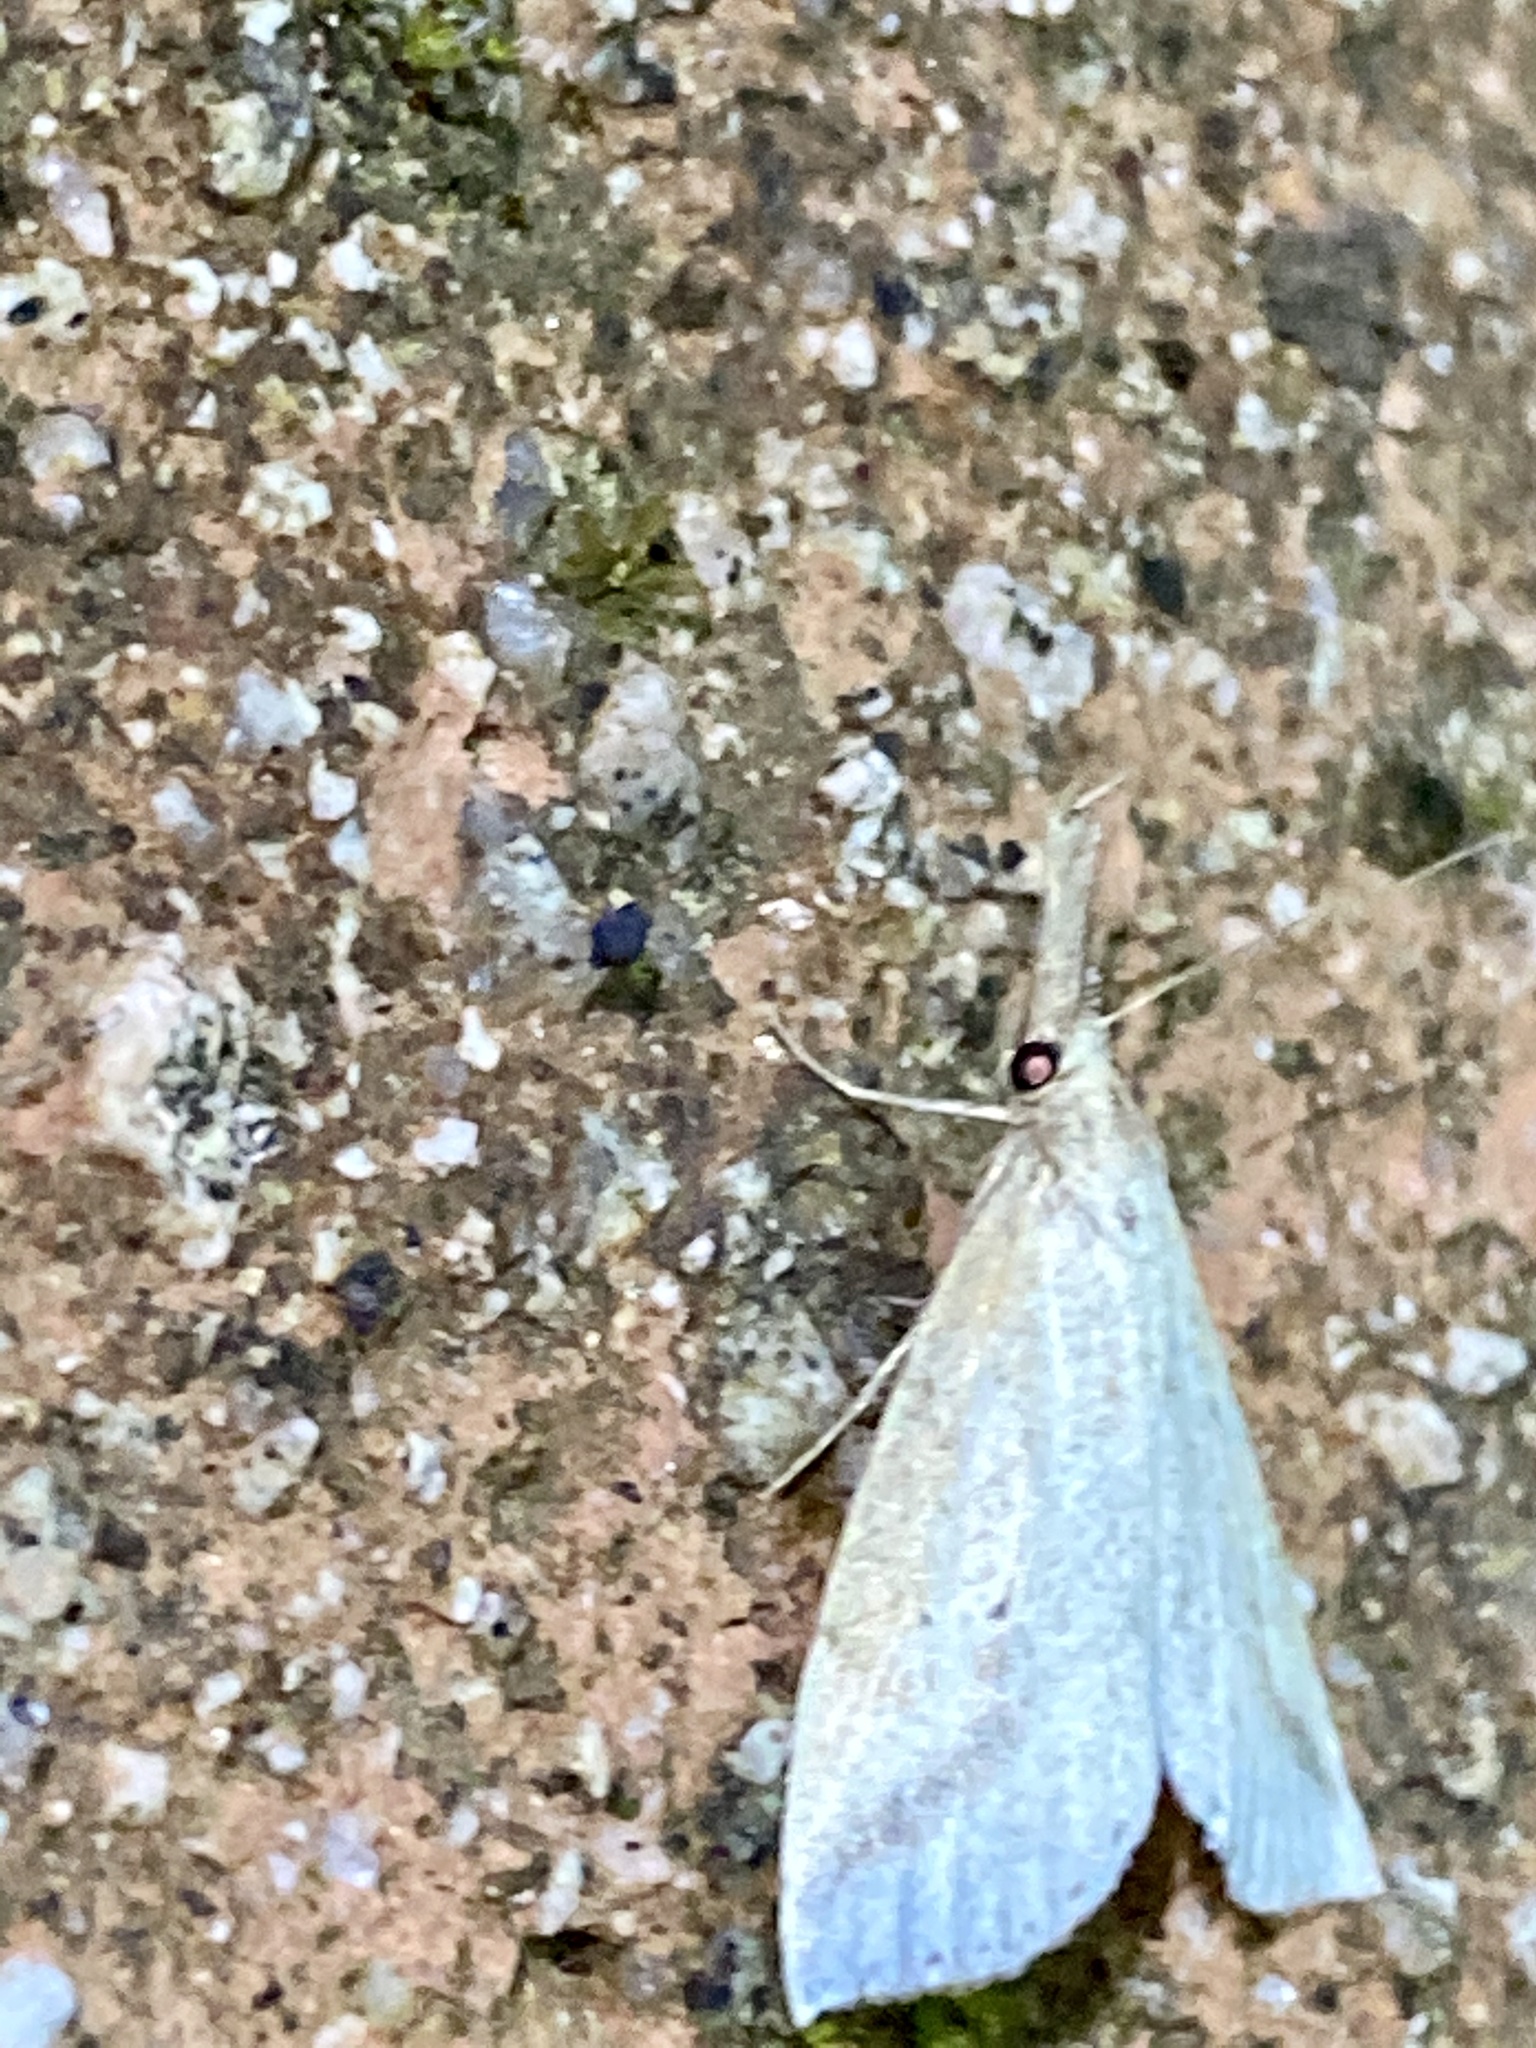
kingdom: Animalia
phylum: Arthropoda
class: Insecta
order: Lepidoptera
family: Erebidae
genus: Hypenomorpha
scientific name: Hypenomorpha
